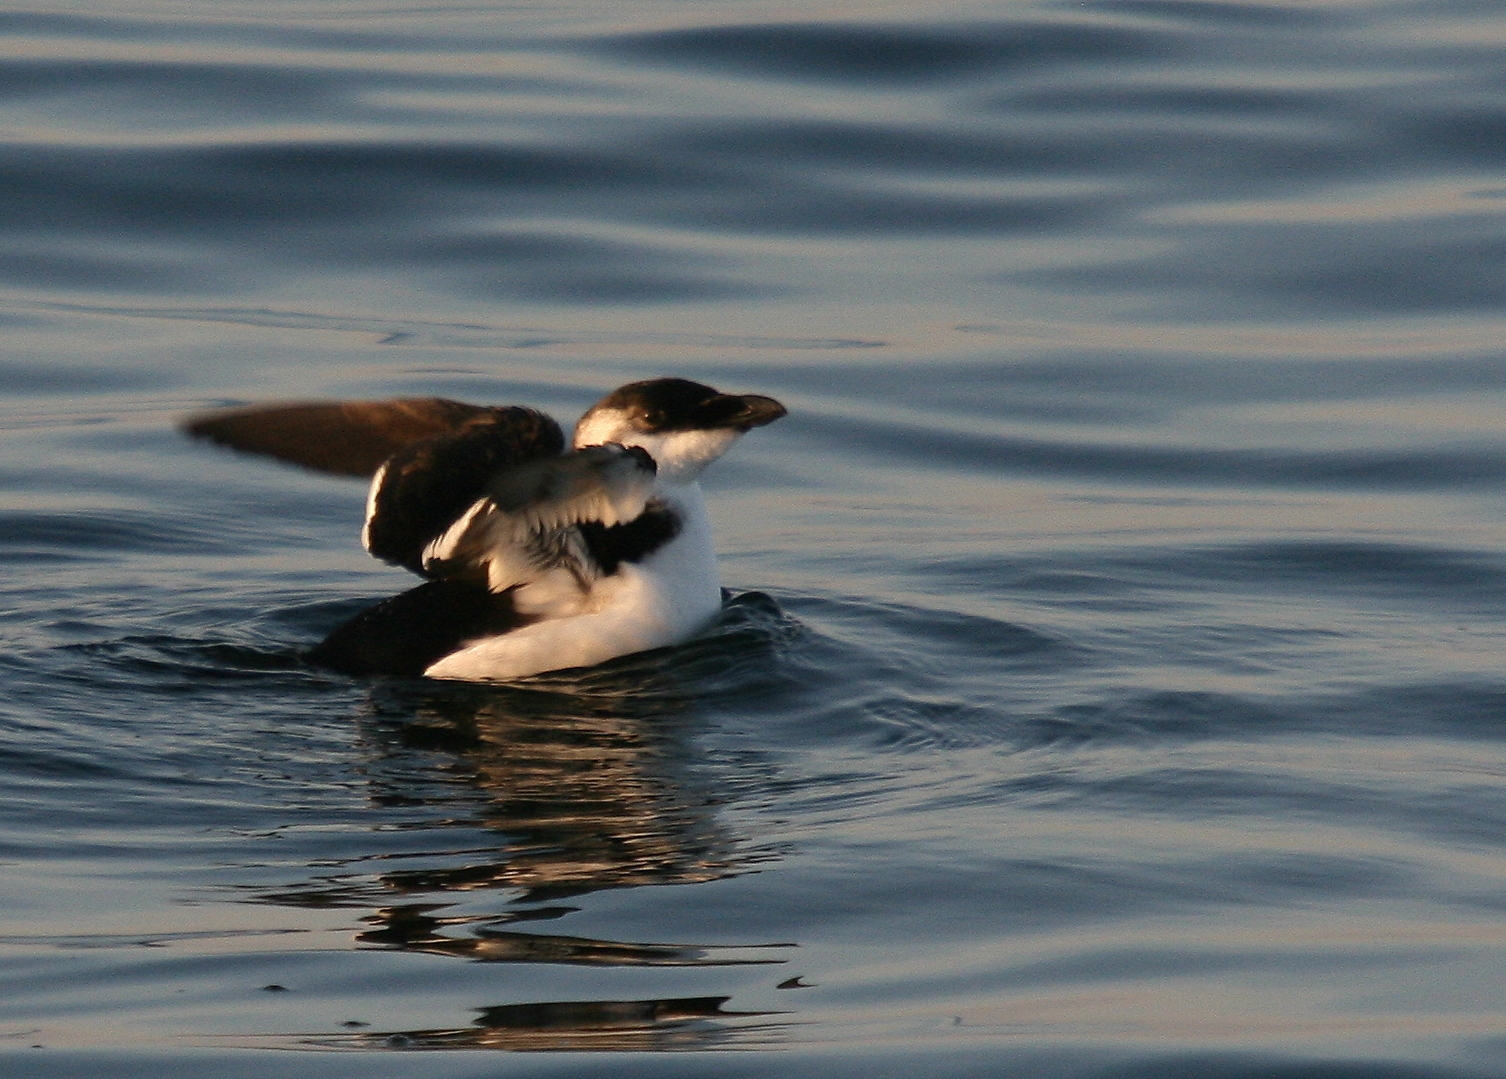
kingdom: Animalia
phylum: Chordata
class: Aves
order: Charadriiformes
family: Alcidae
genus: Alca
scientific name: Alca torda
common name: Razorbill
